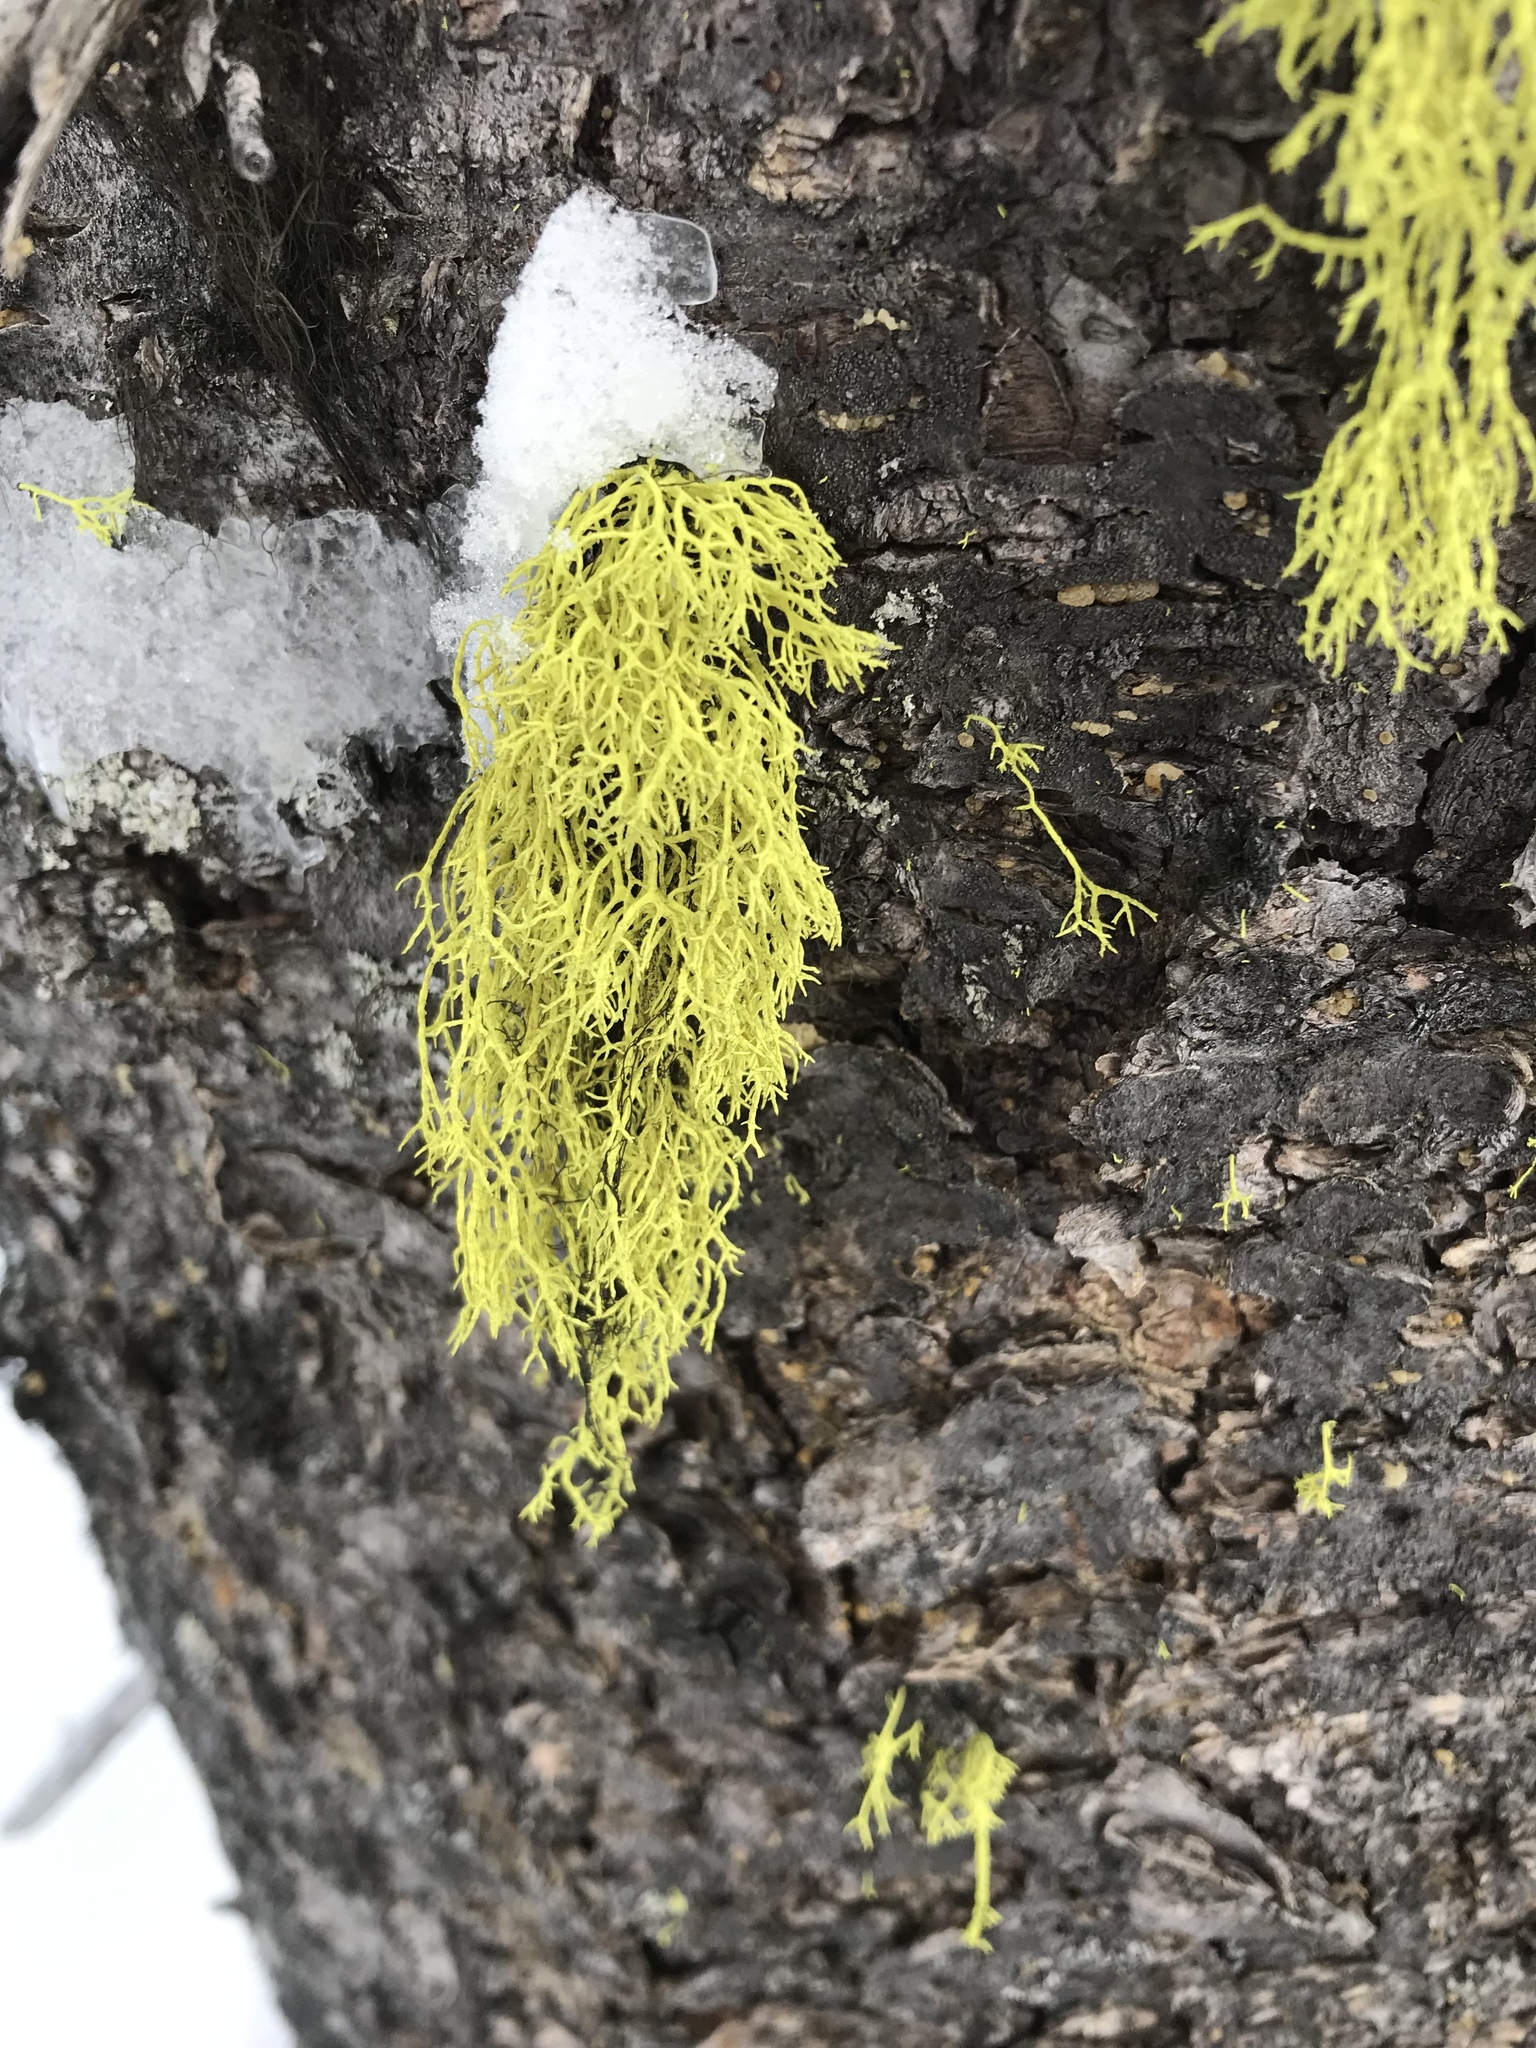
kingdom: Fungi
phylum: Ascomycota
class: Lecanoromycetes
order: Lecanorales
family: Parmeliaceae
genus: Letharia
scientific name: Letharia vulpina
